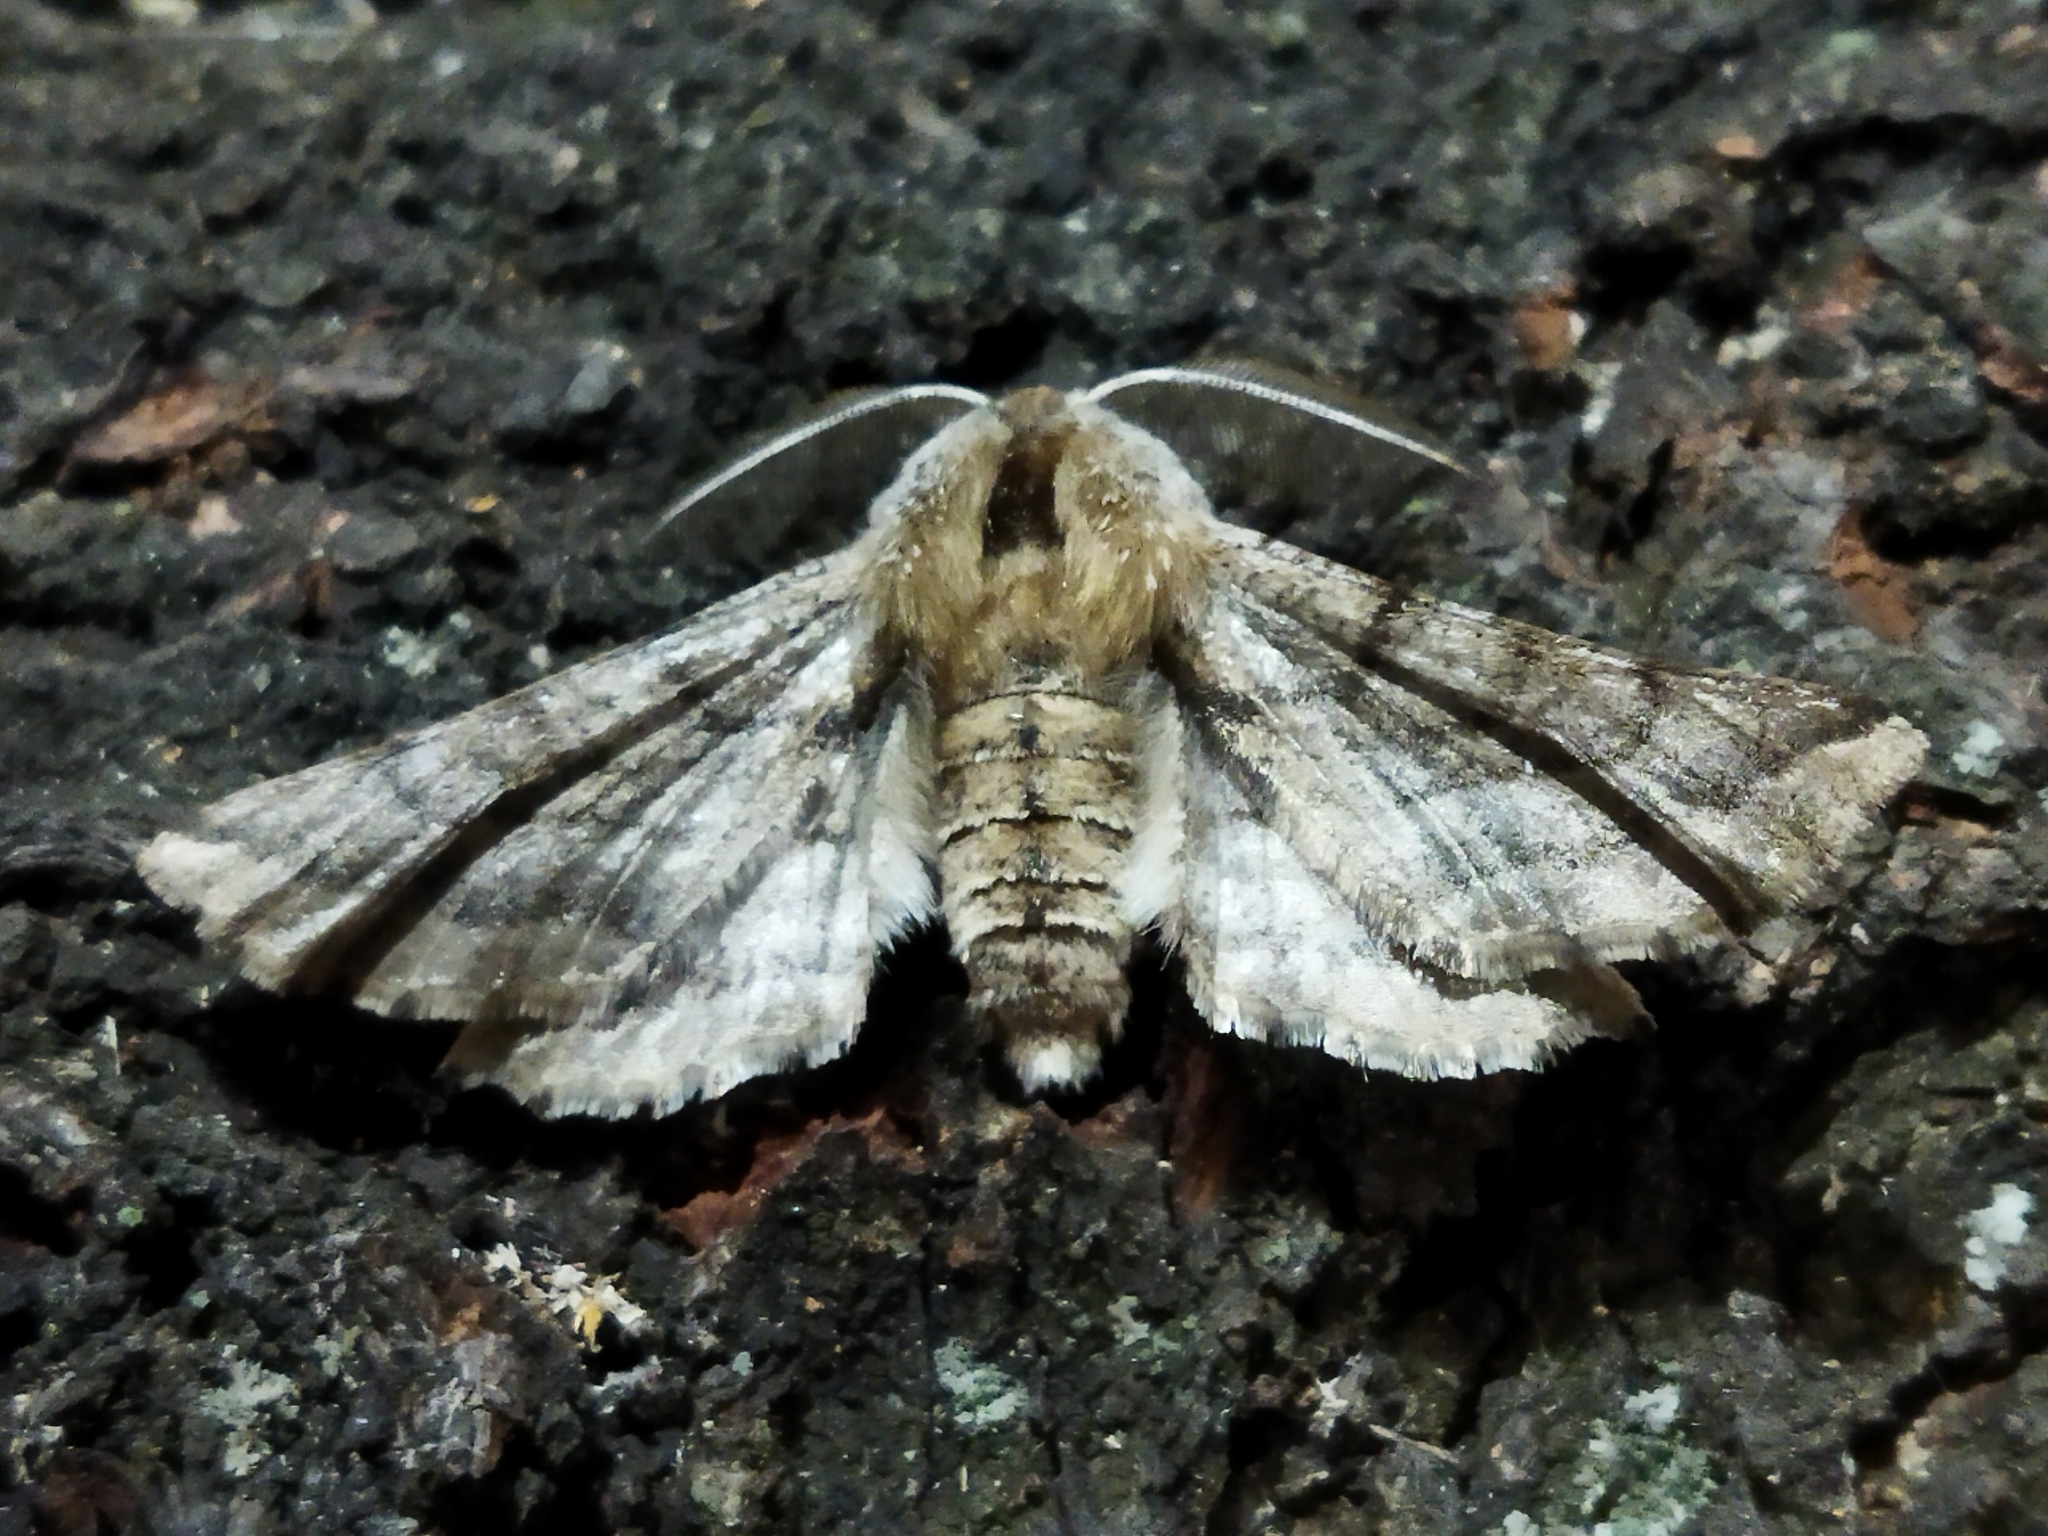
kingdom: Animalia
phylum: Arthropoda
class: Insecta
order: Lepidoptera
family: Geometridae
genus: Apochima
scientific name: Apochima flabellaria
